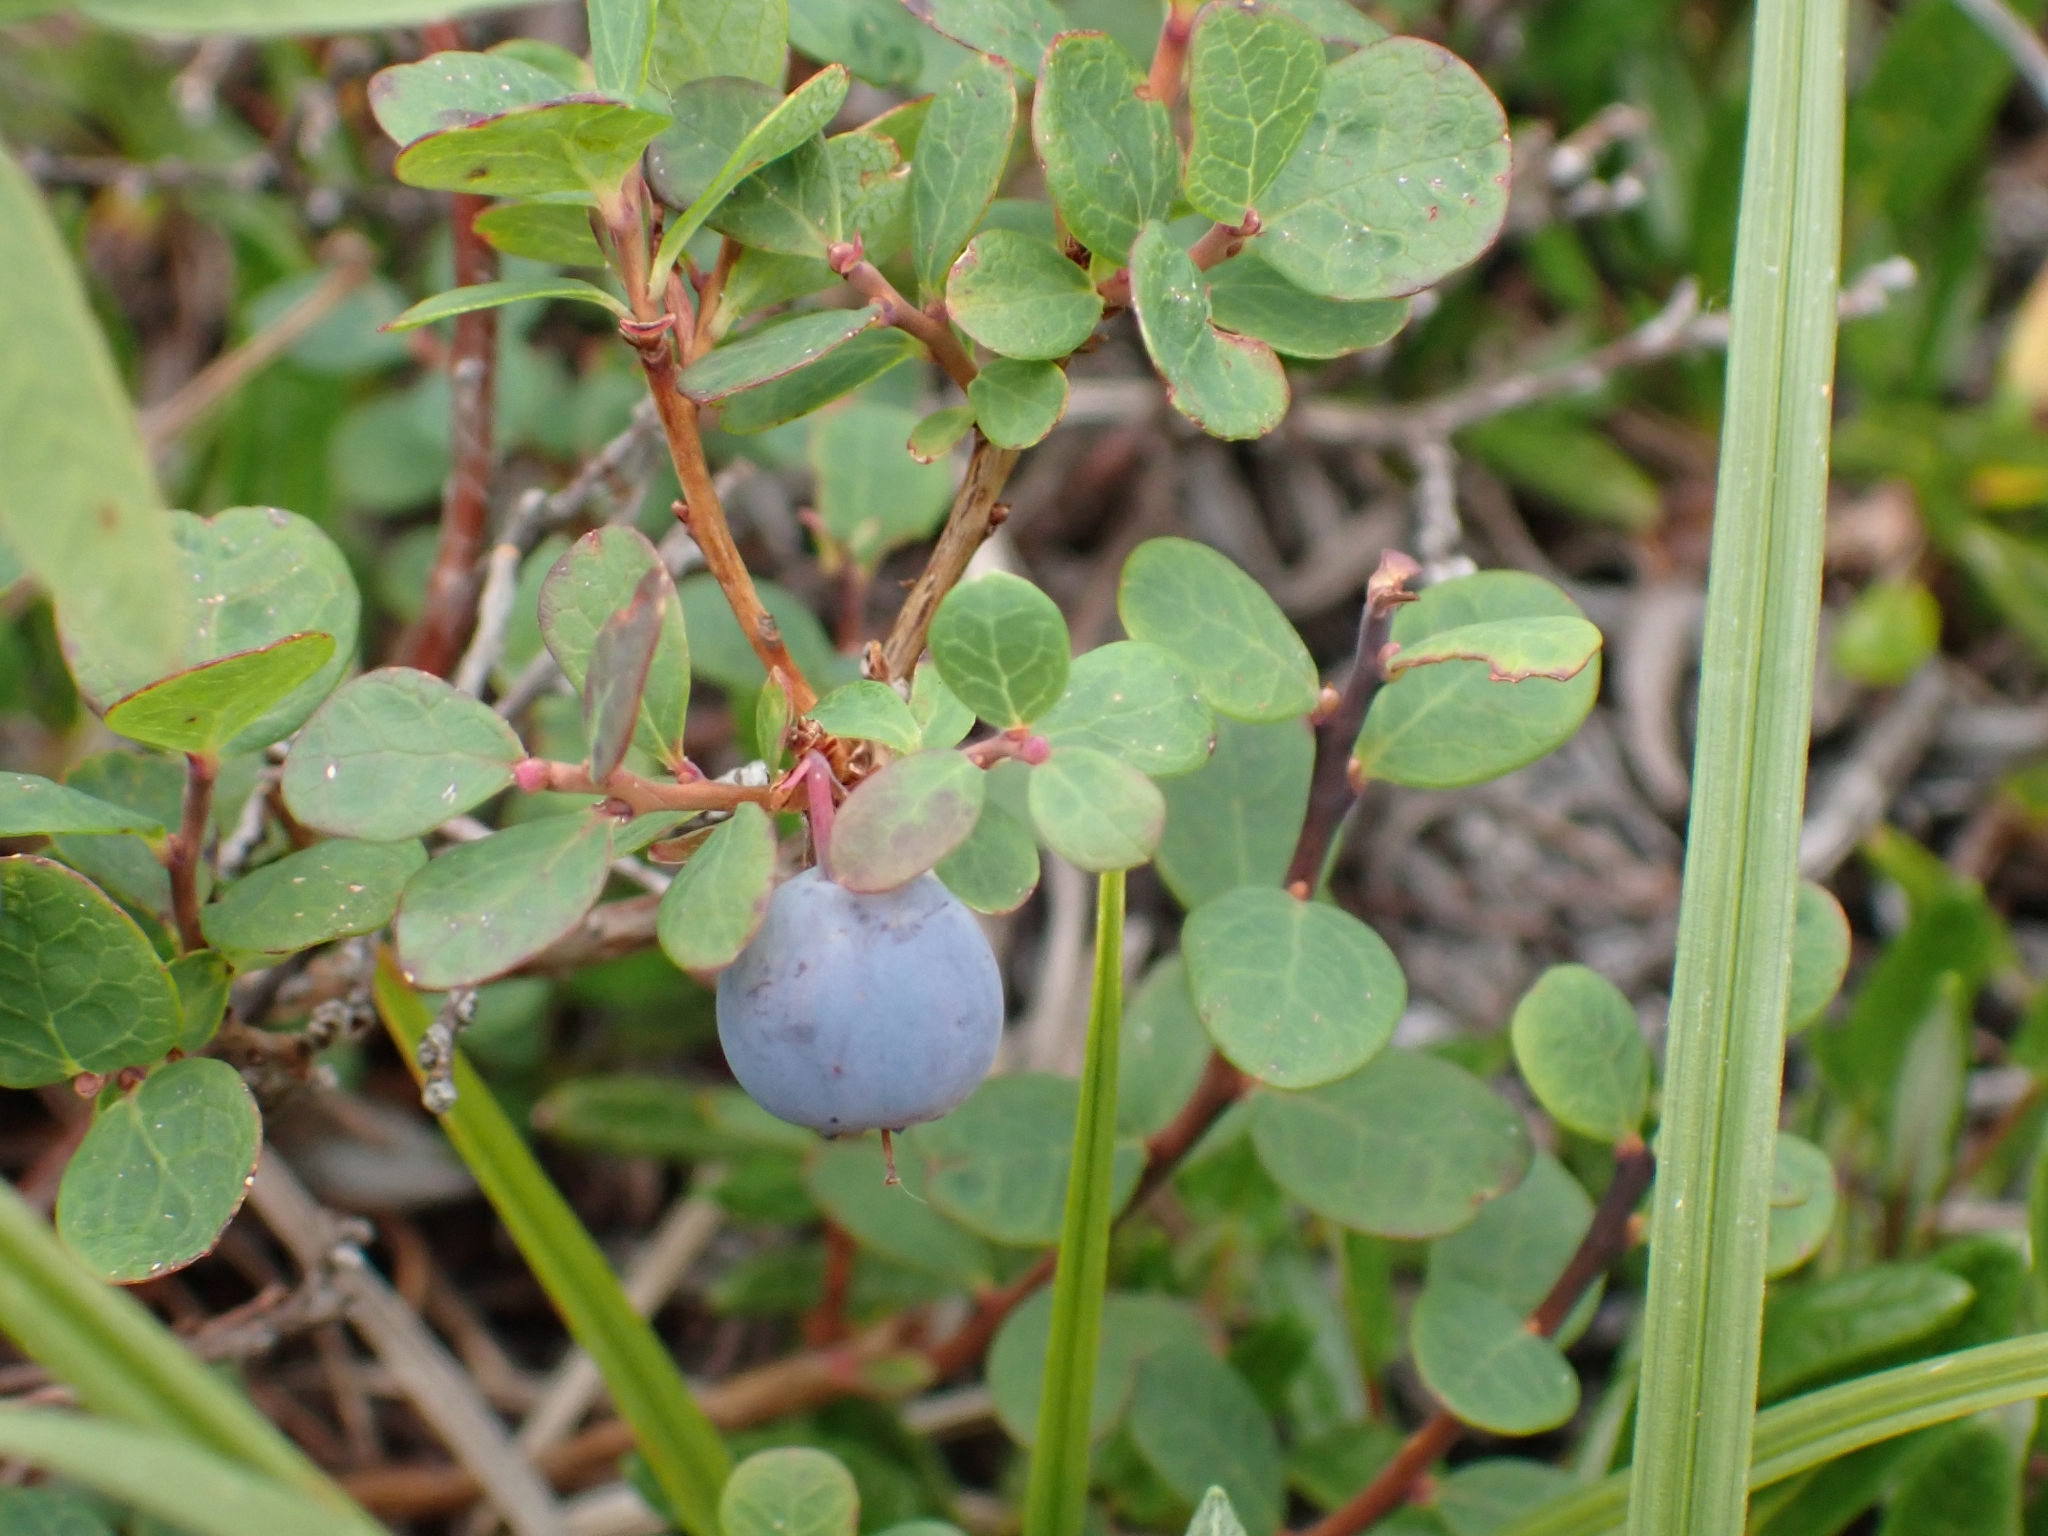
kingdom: Plantae
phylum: Tracheophyta
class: Magnoliopsida
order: Ericales
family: Ericaceae
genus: Vaccinium
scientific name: Vaccinium uliginosum
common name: Bog bilberry
